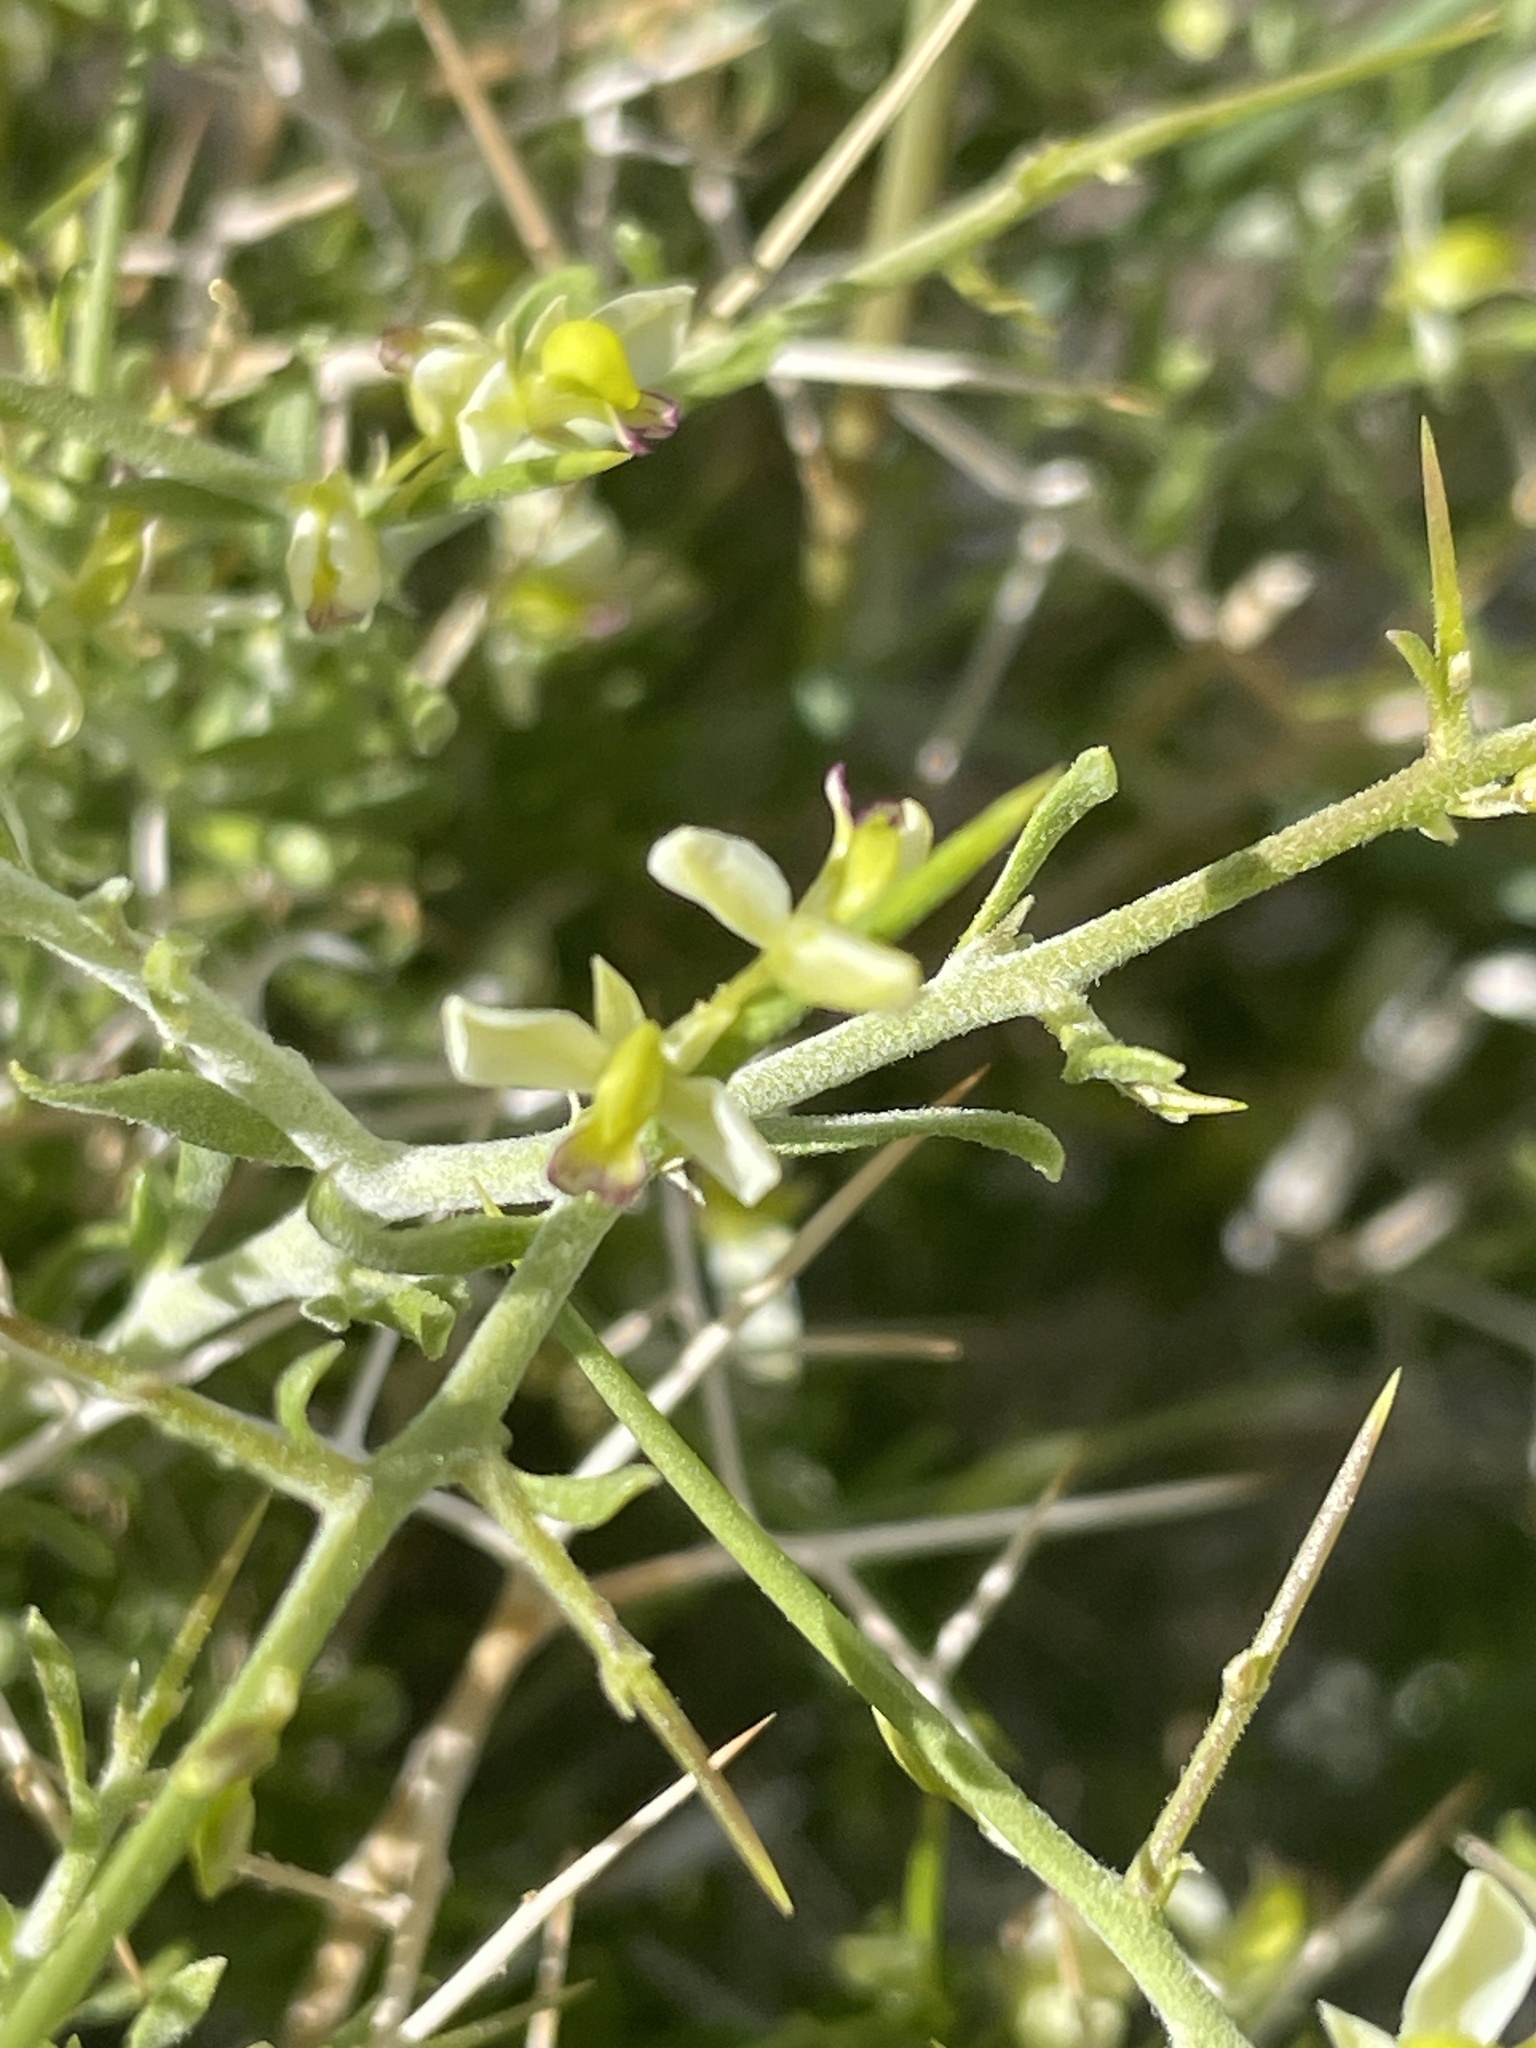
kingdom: Plantae
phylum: Tracheophyta
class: Magnoliopsida
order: Fabales
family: Polygalaceae
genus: Rhinotropis
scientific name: Rhinotropis intermontana
